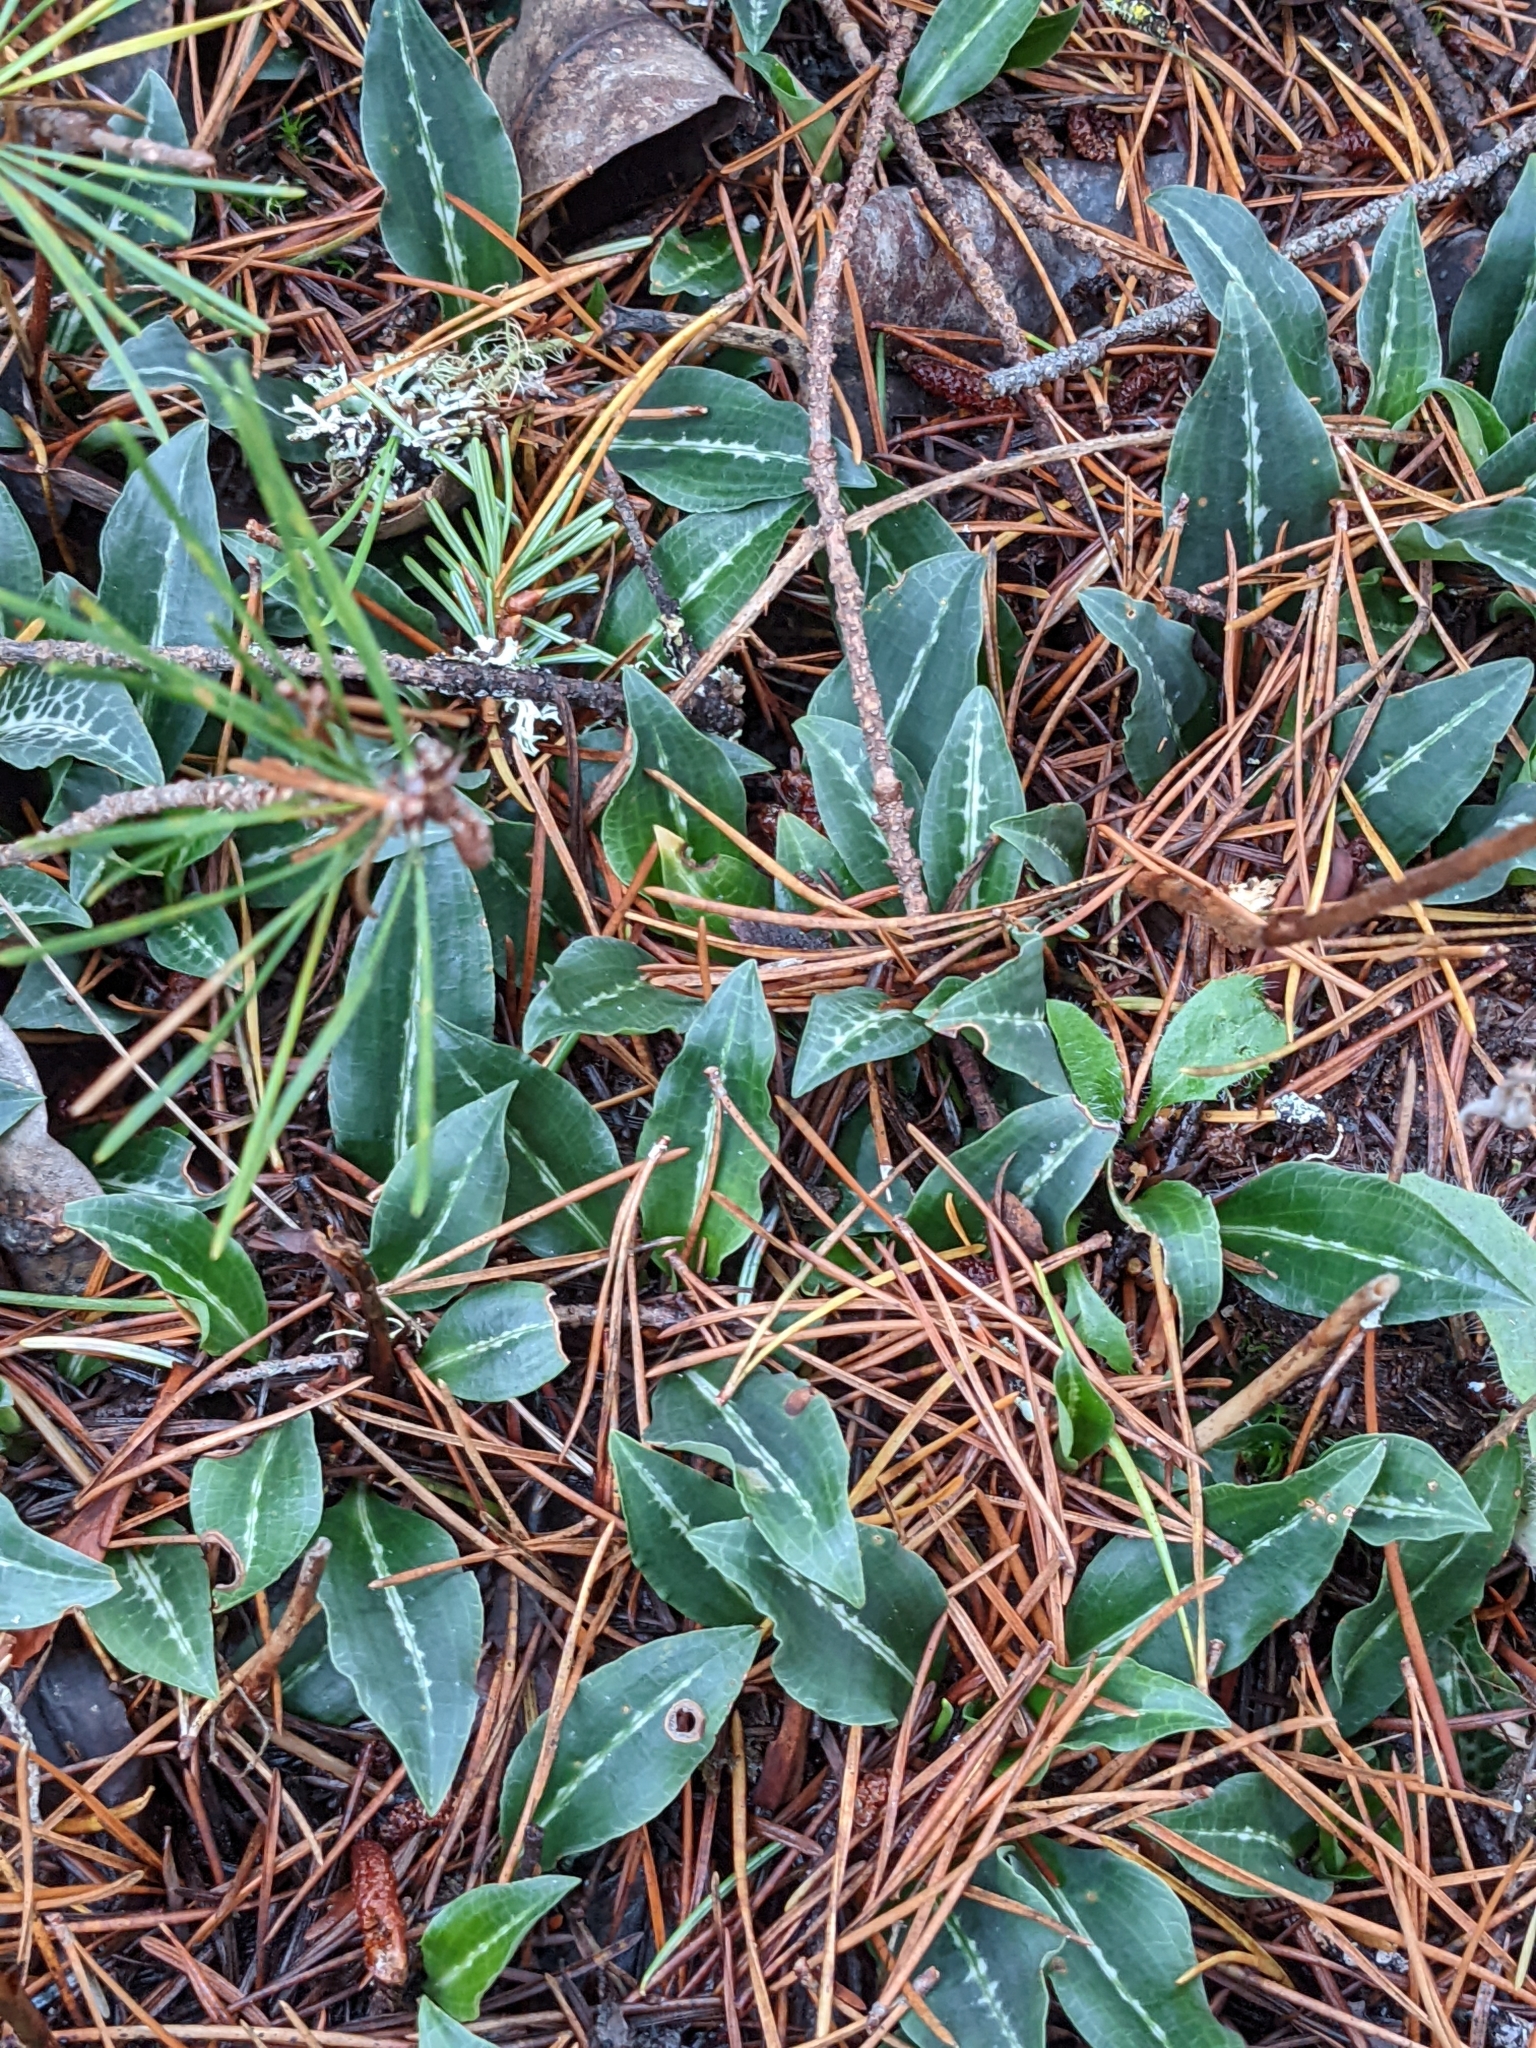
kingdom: Plantae
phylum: Tracheophyta
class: Liliopsida
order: Asparagales
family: Orchidaceae
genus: Goodyera
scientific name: Goodyera oblongifolia
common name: Giant rattlesnake-plantain
